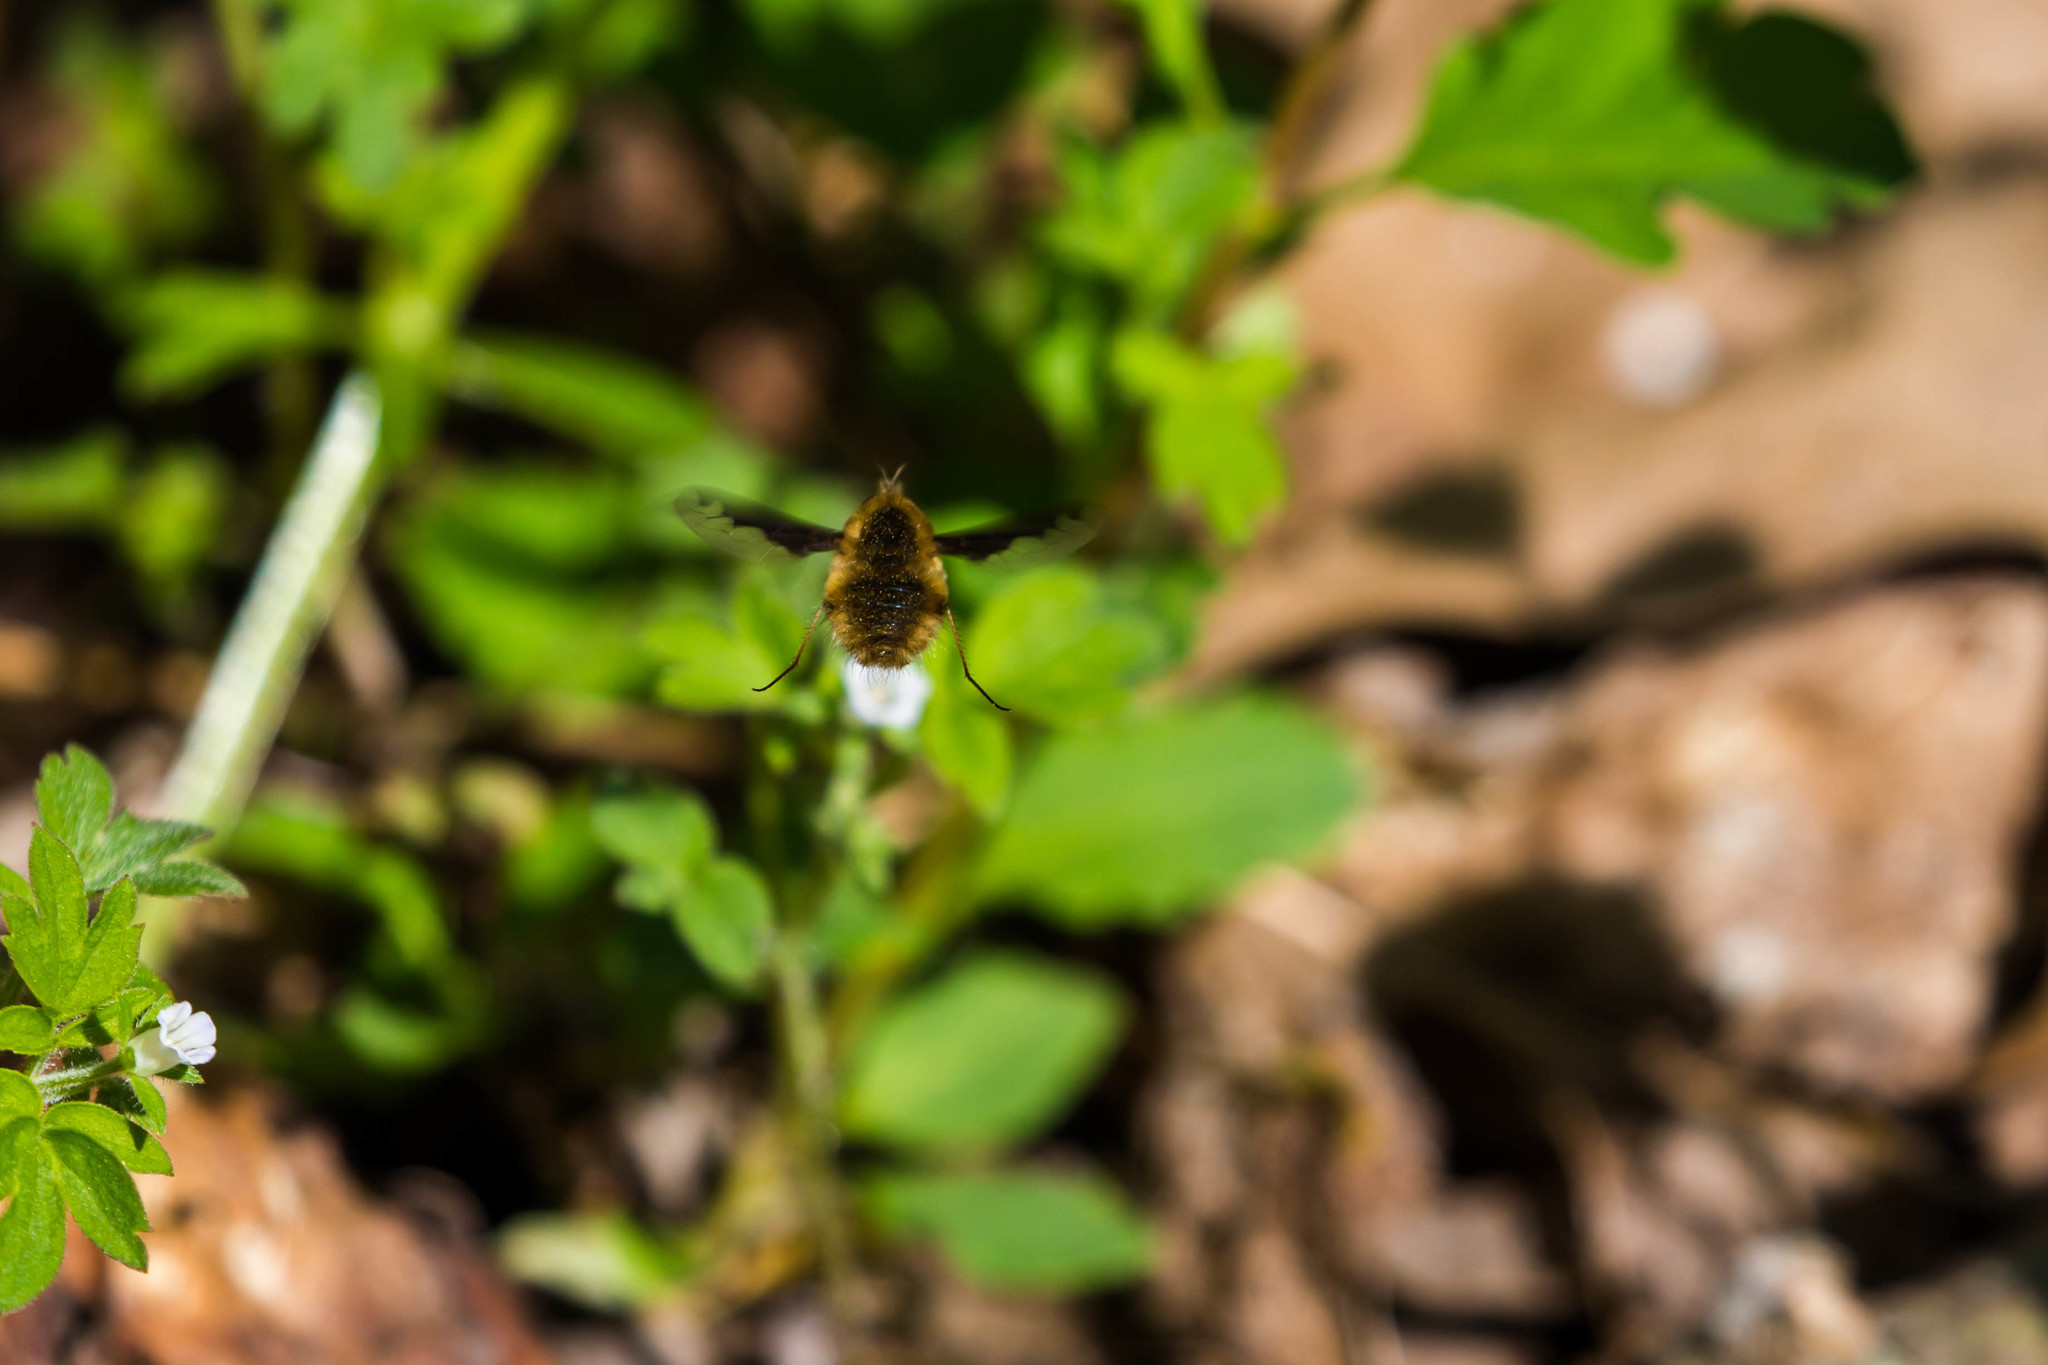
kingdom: Animalia
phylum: Arthropoda
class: Insecta
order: Diptera
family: Bombyliidae
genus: Bombylius
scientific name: Bombylius major
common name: Bee fly
